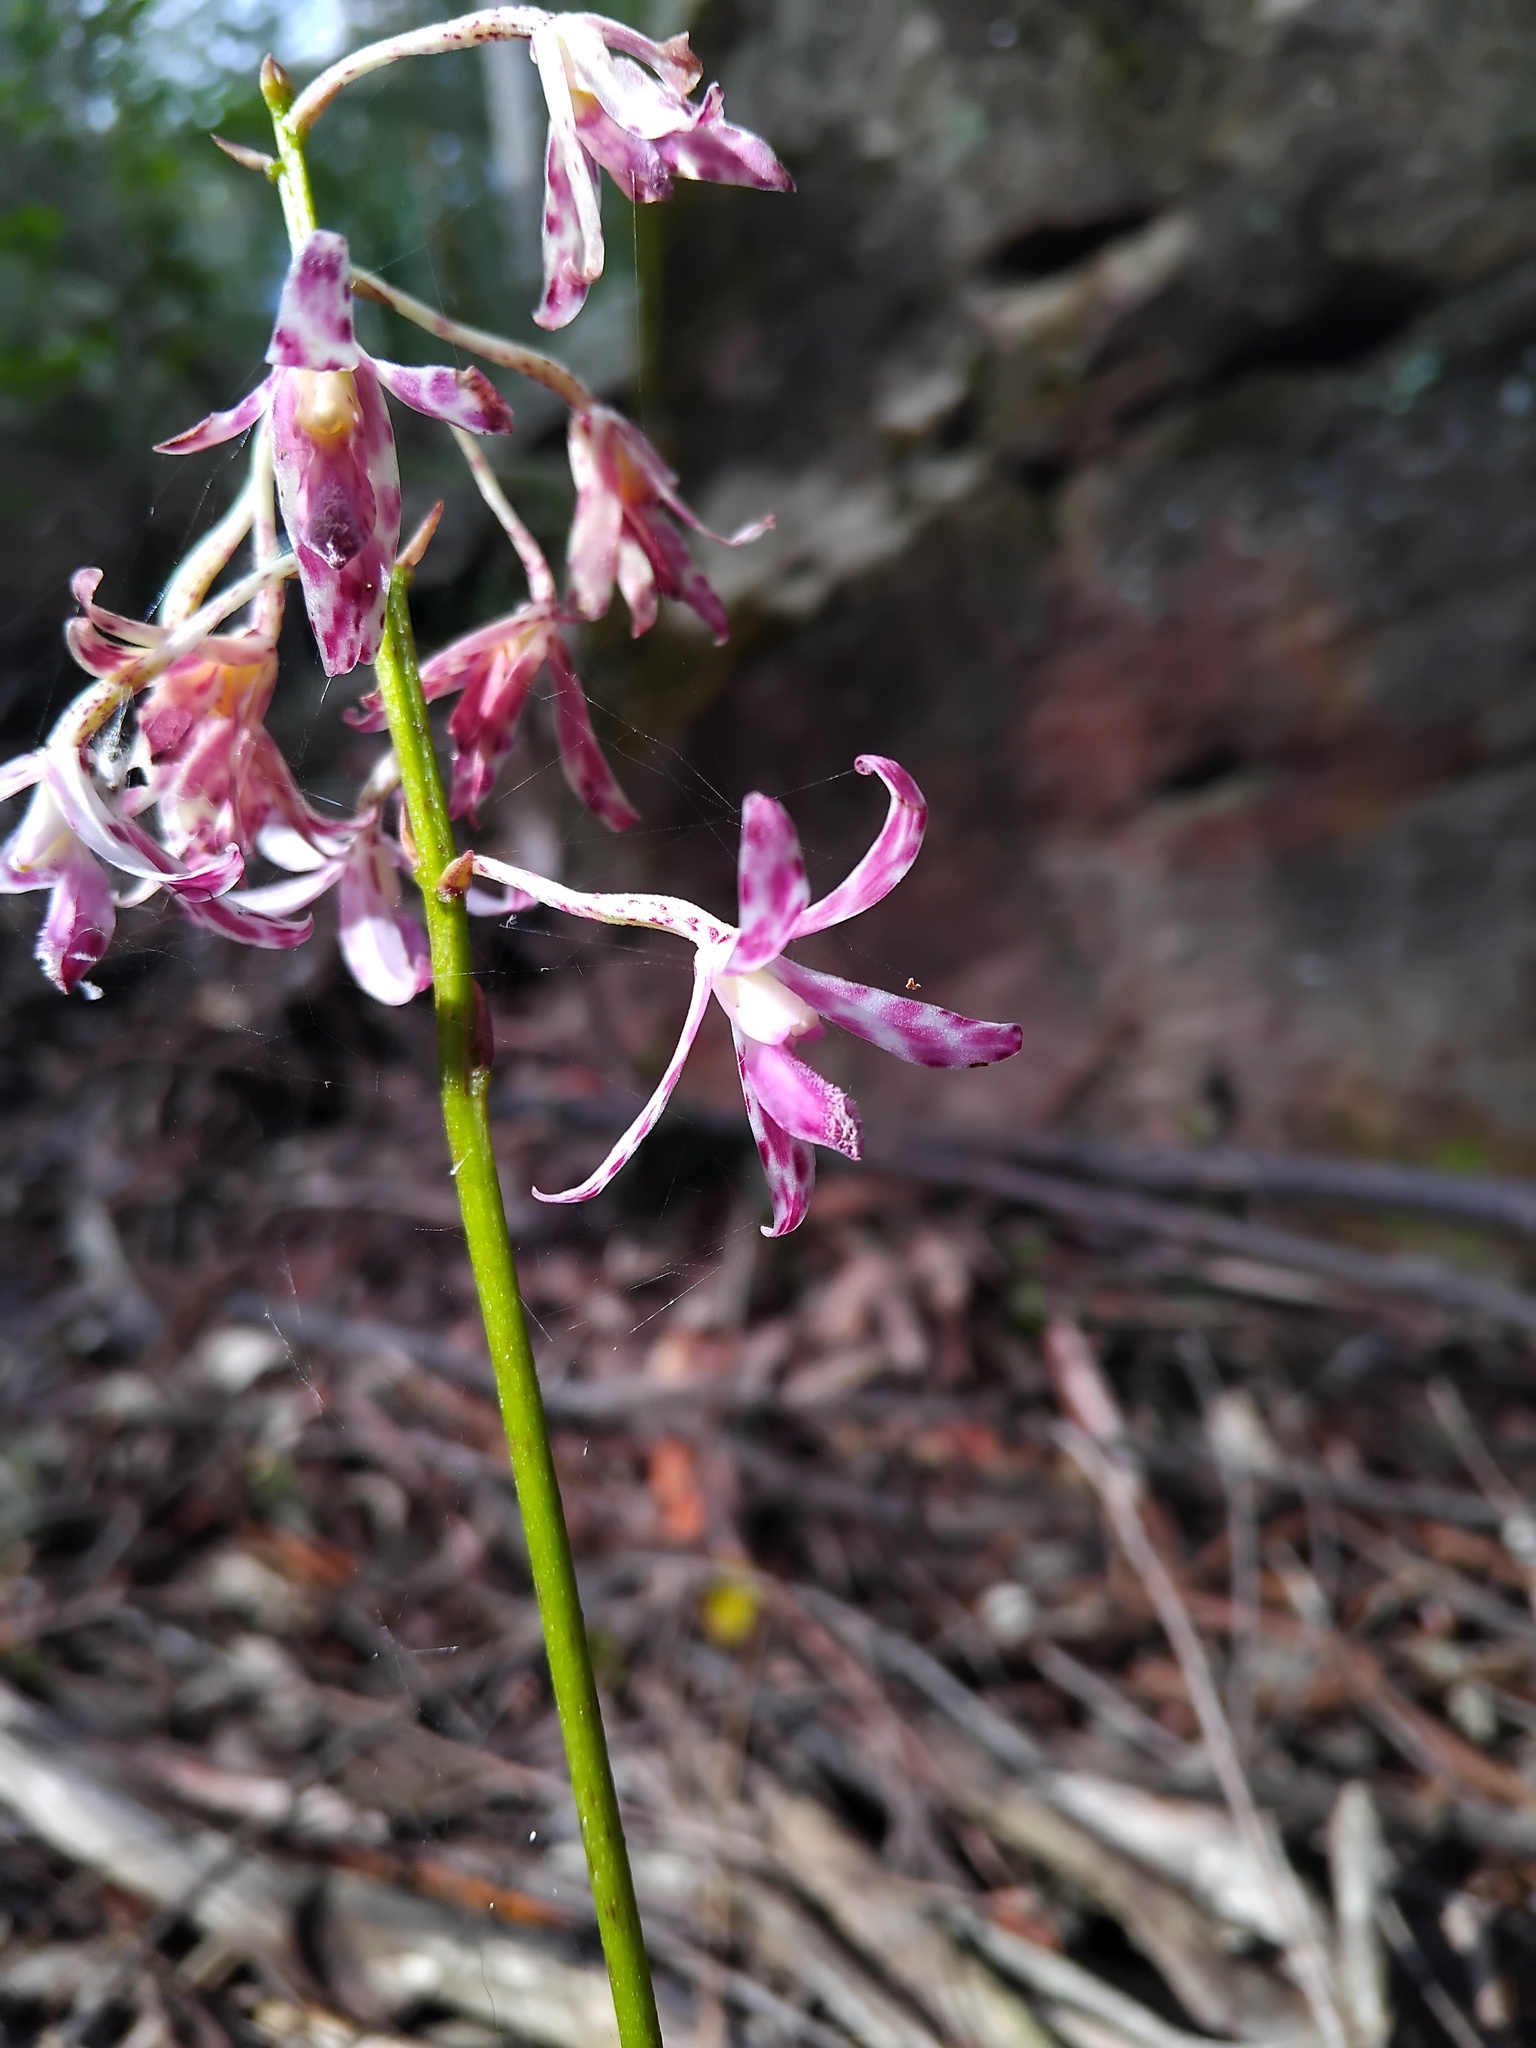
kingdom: Plantae
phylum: Tracheophyta
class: Liliopsida
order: Asparagales
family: Orchidaceae
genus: Dipodium
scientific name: Dipodium variegatum
